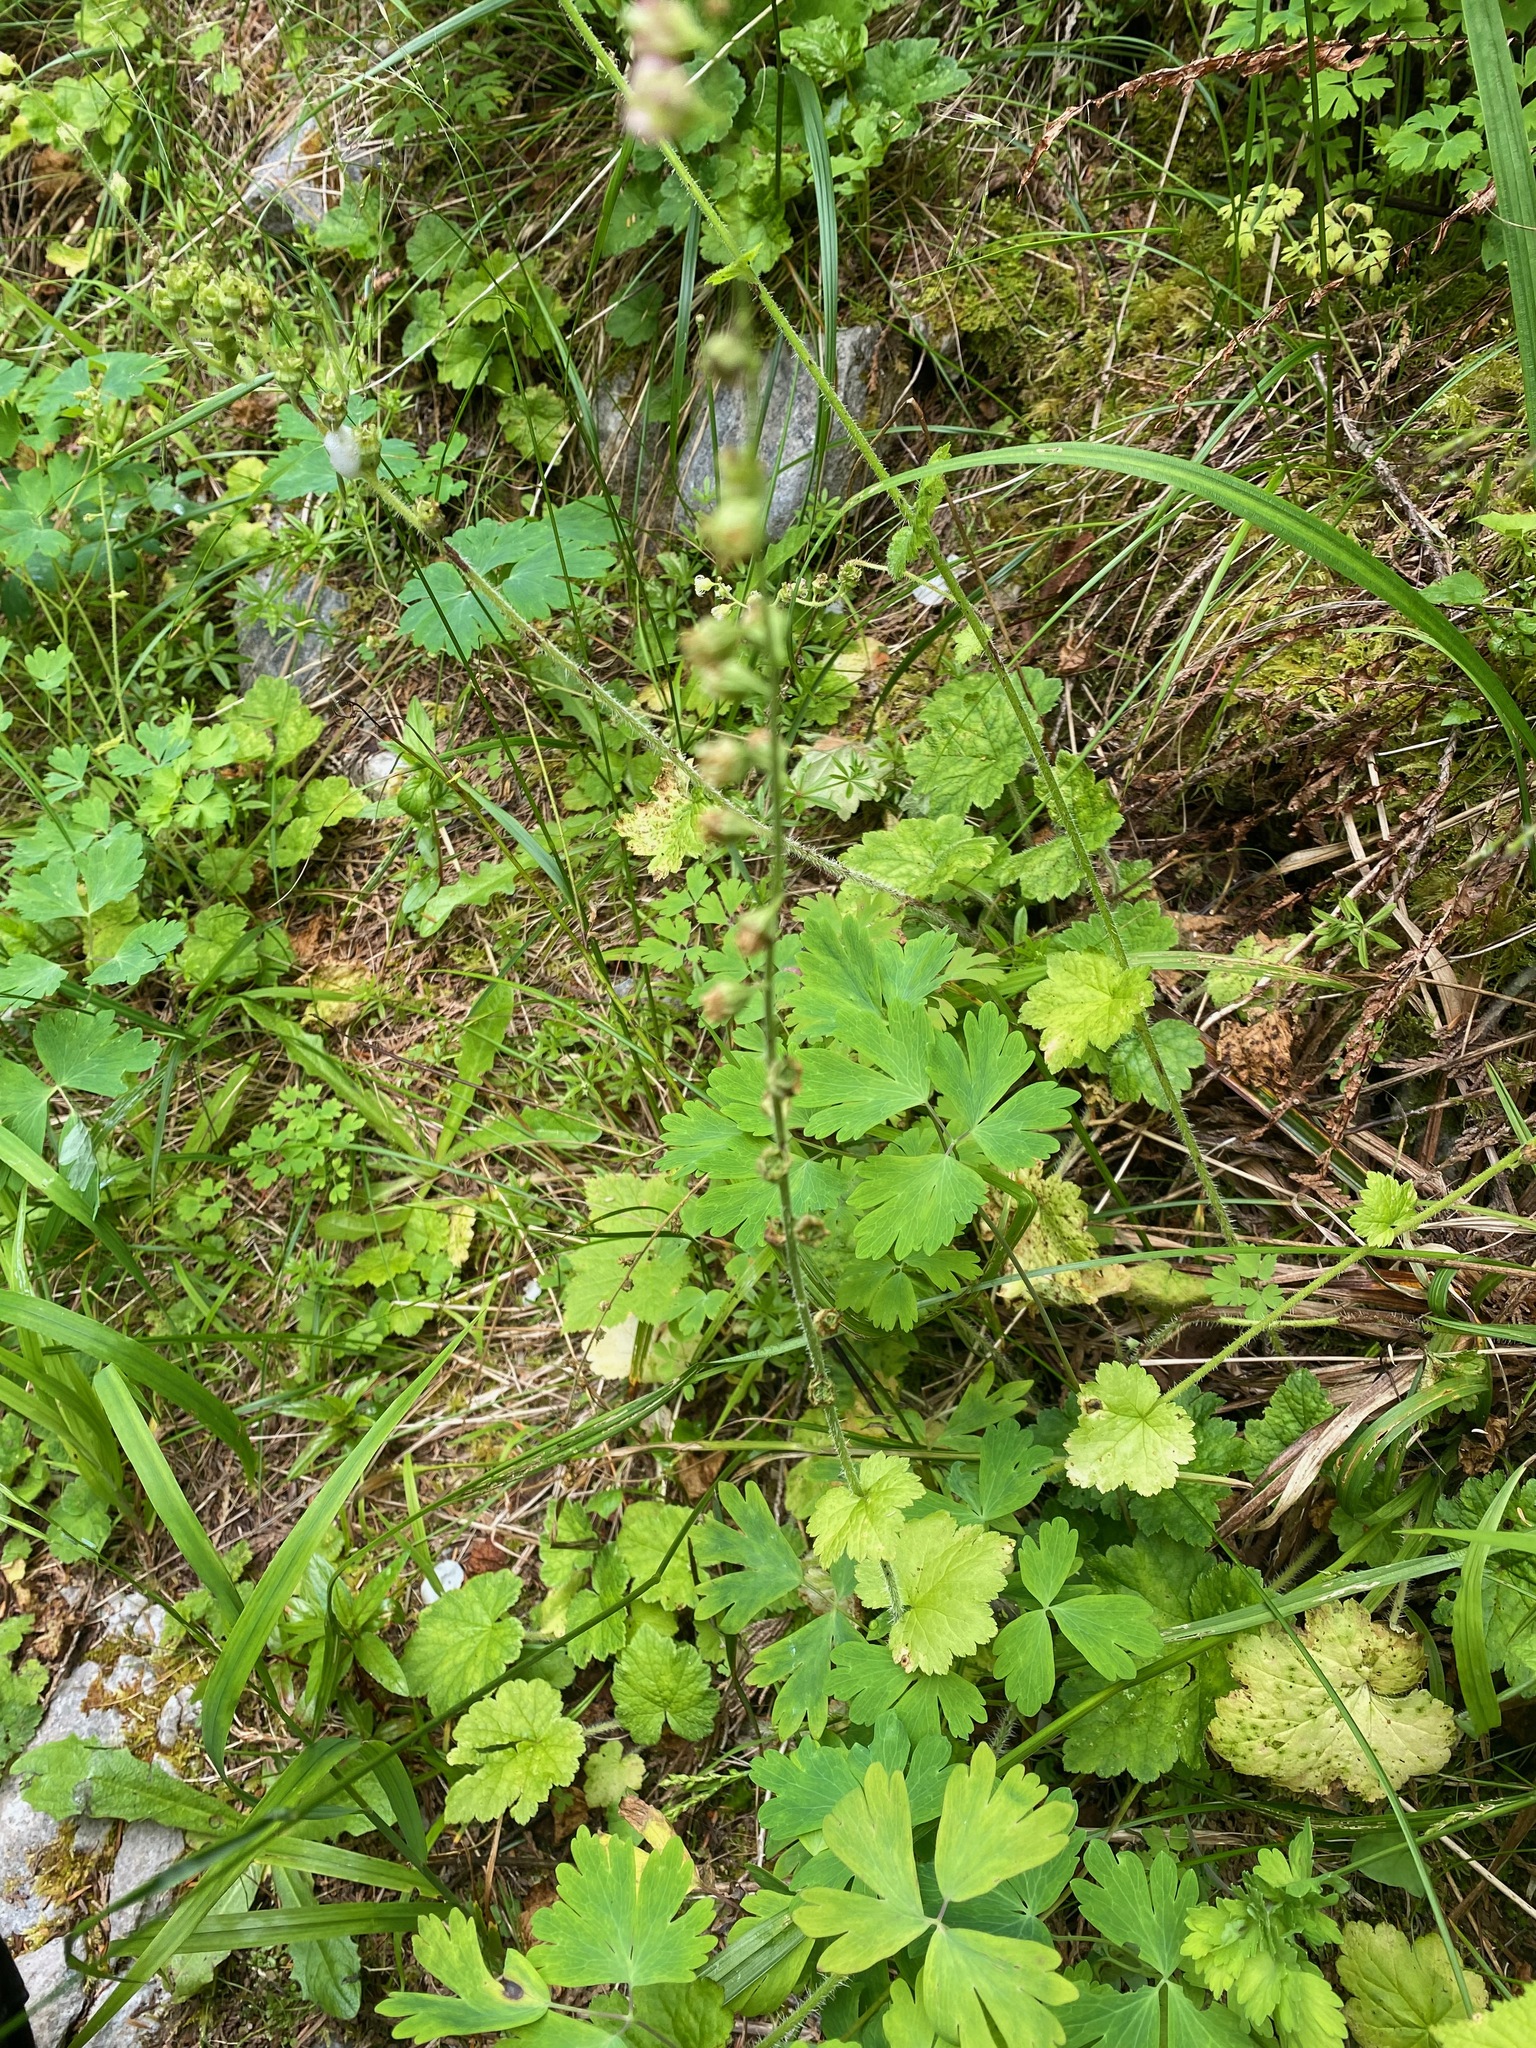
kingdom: Plantae
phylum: Tracheophyta
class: Magnoliopsida
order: Saxifragales
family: Saxifragaceae
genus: Tellima
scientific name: Tellima grandiflora
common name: Fringecups
